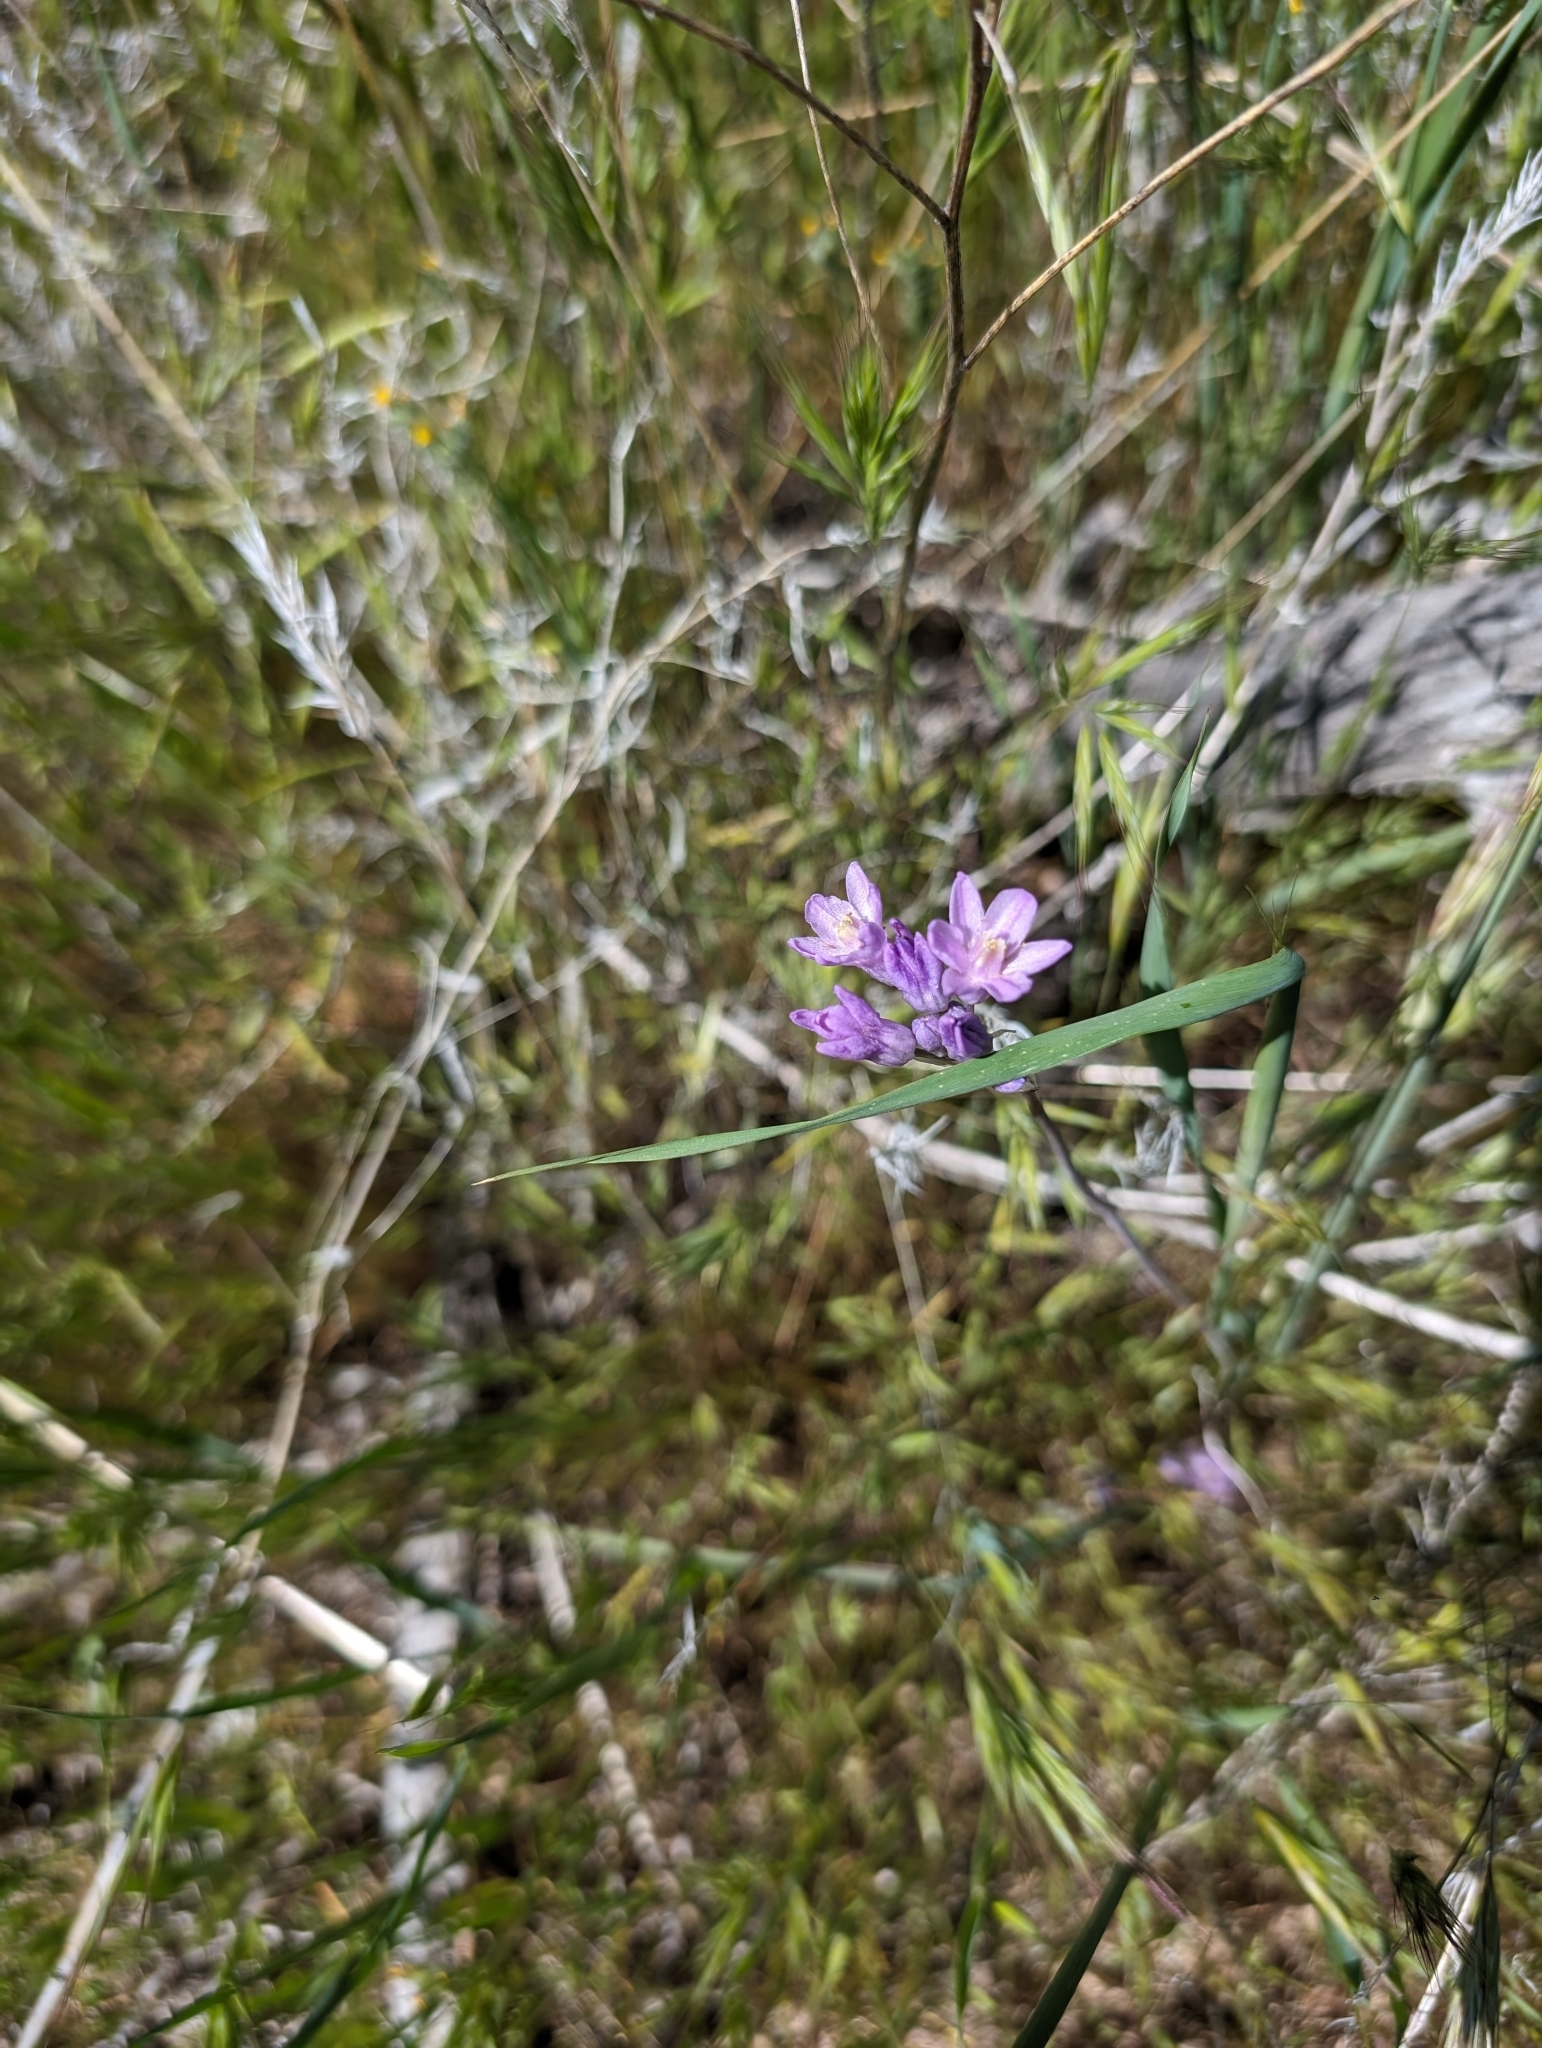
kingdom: Plantae
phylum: Tracheophyta
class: Liliopsida
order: Asparagales
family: Asparagaceae
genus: Dipterostemon
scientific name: Dipterostemon capitatus
